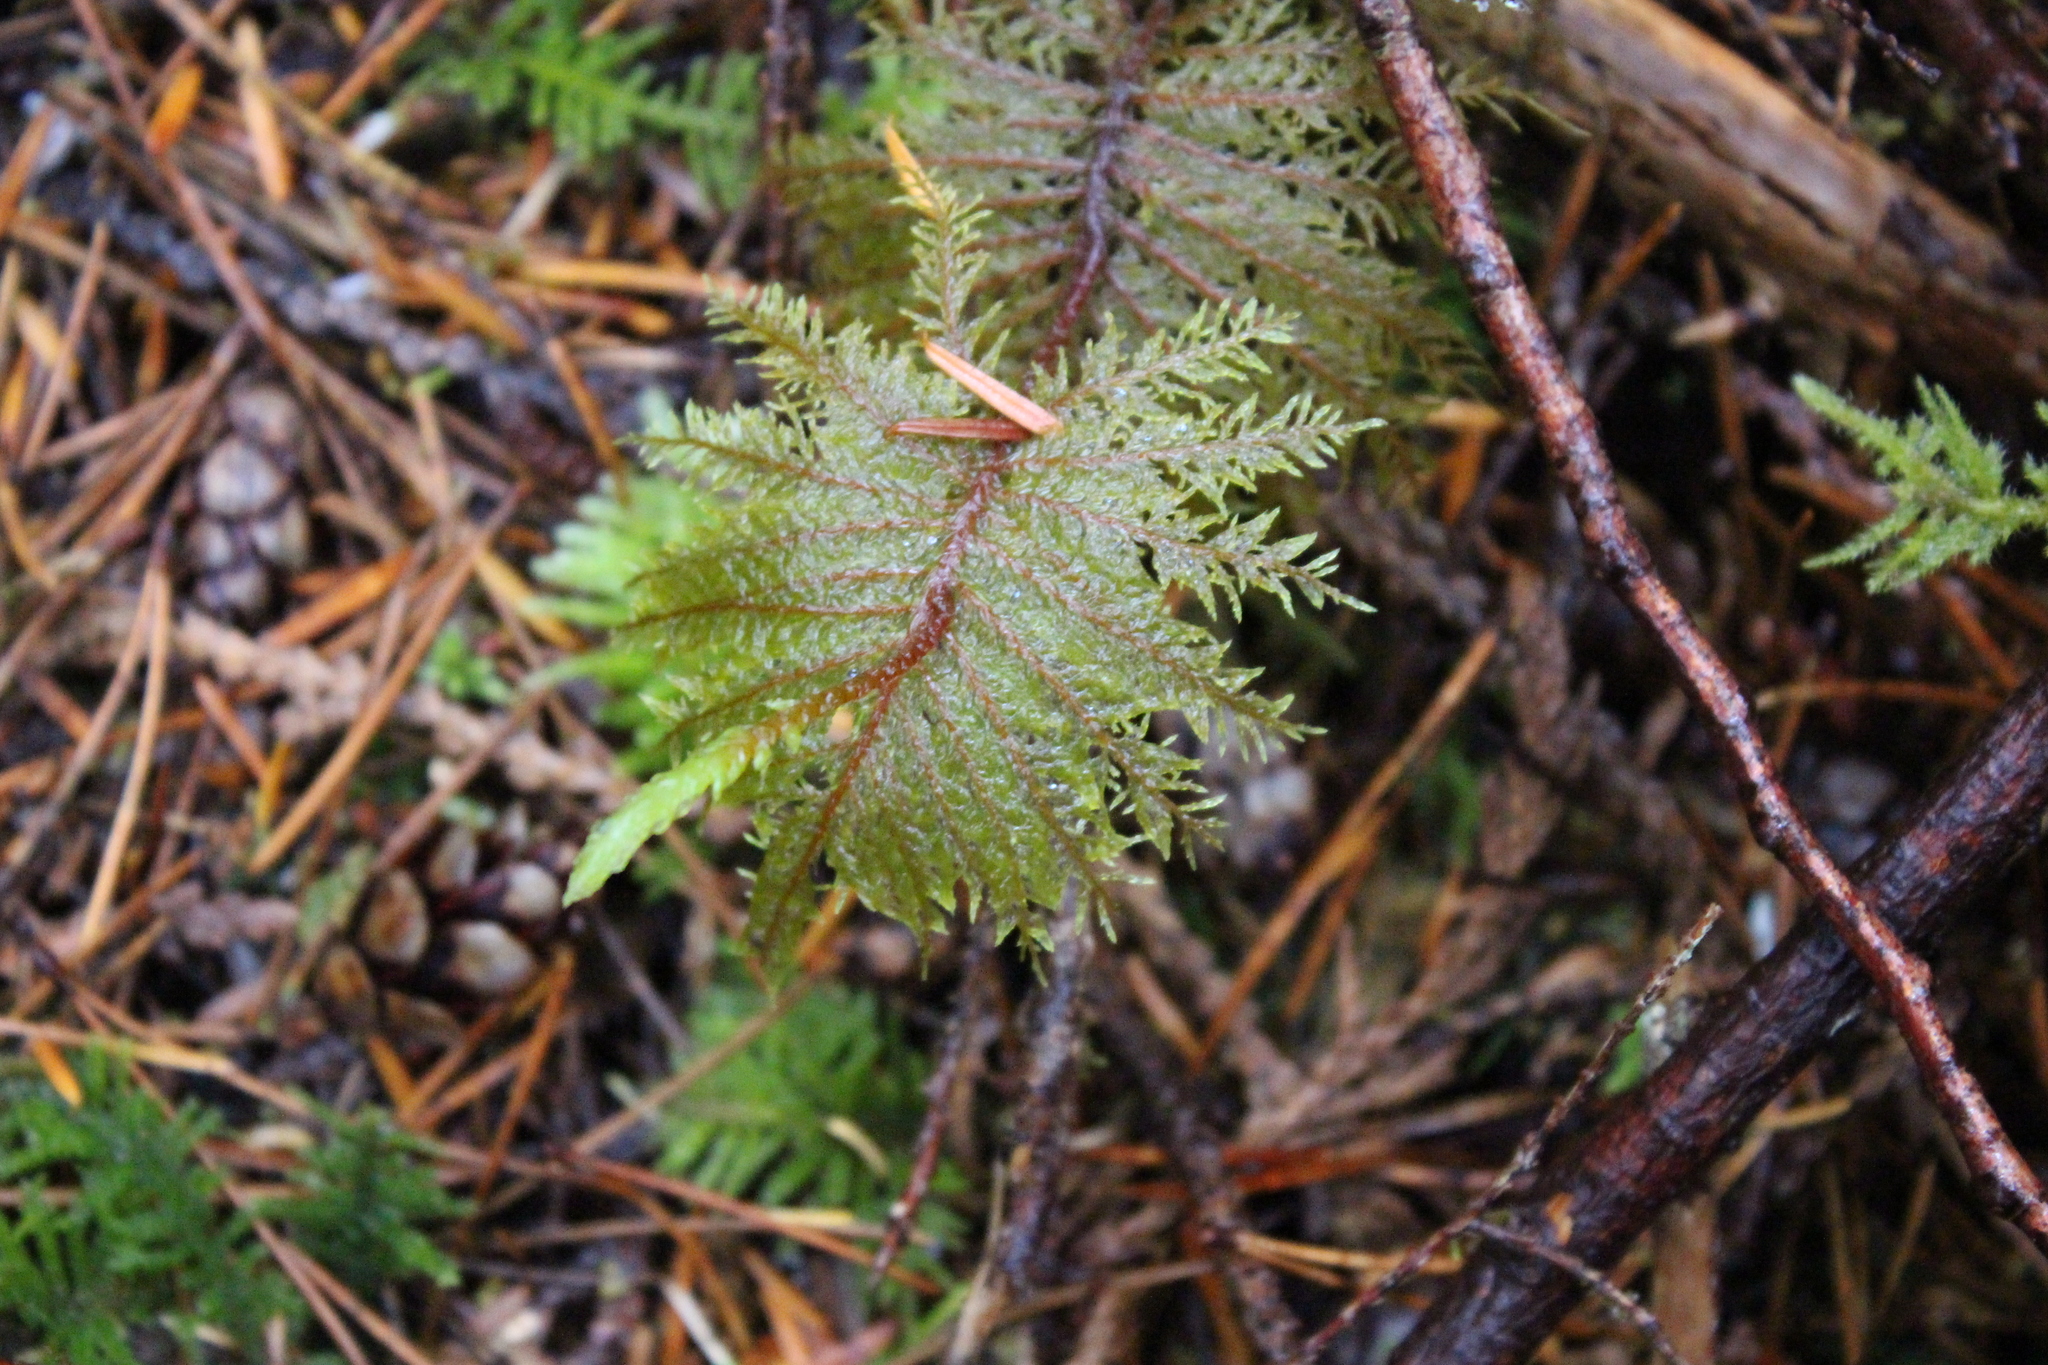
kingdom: Plantae
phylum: Bryophyta
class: Bryopsida
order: Hypnales
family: Hylocomiaceae
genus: Hylocomium
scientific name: Hylocomium splendens
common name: Stairstep moss
